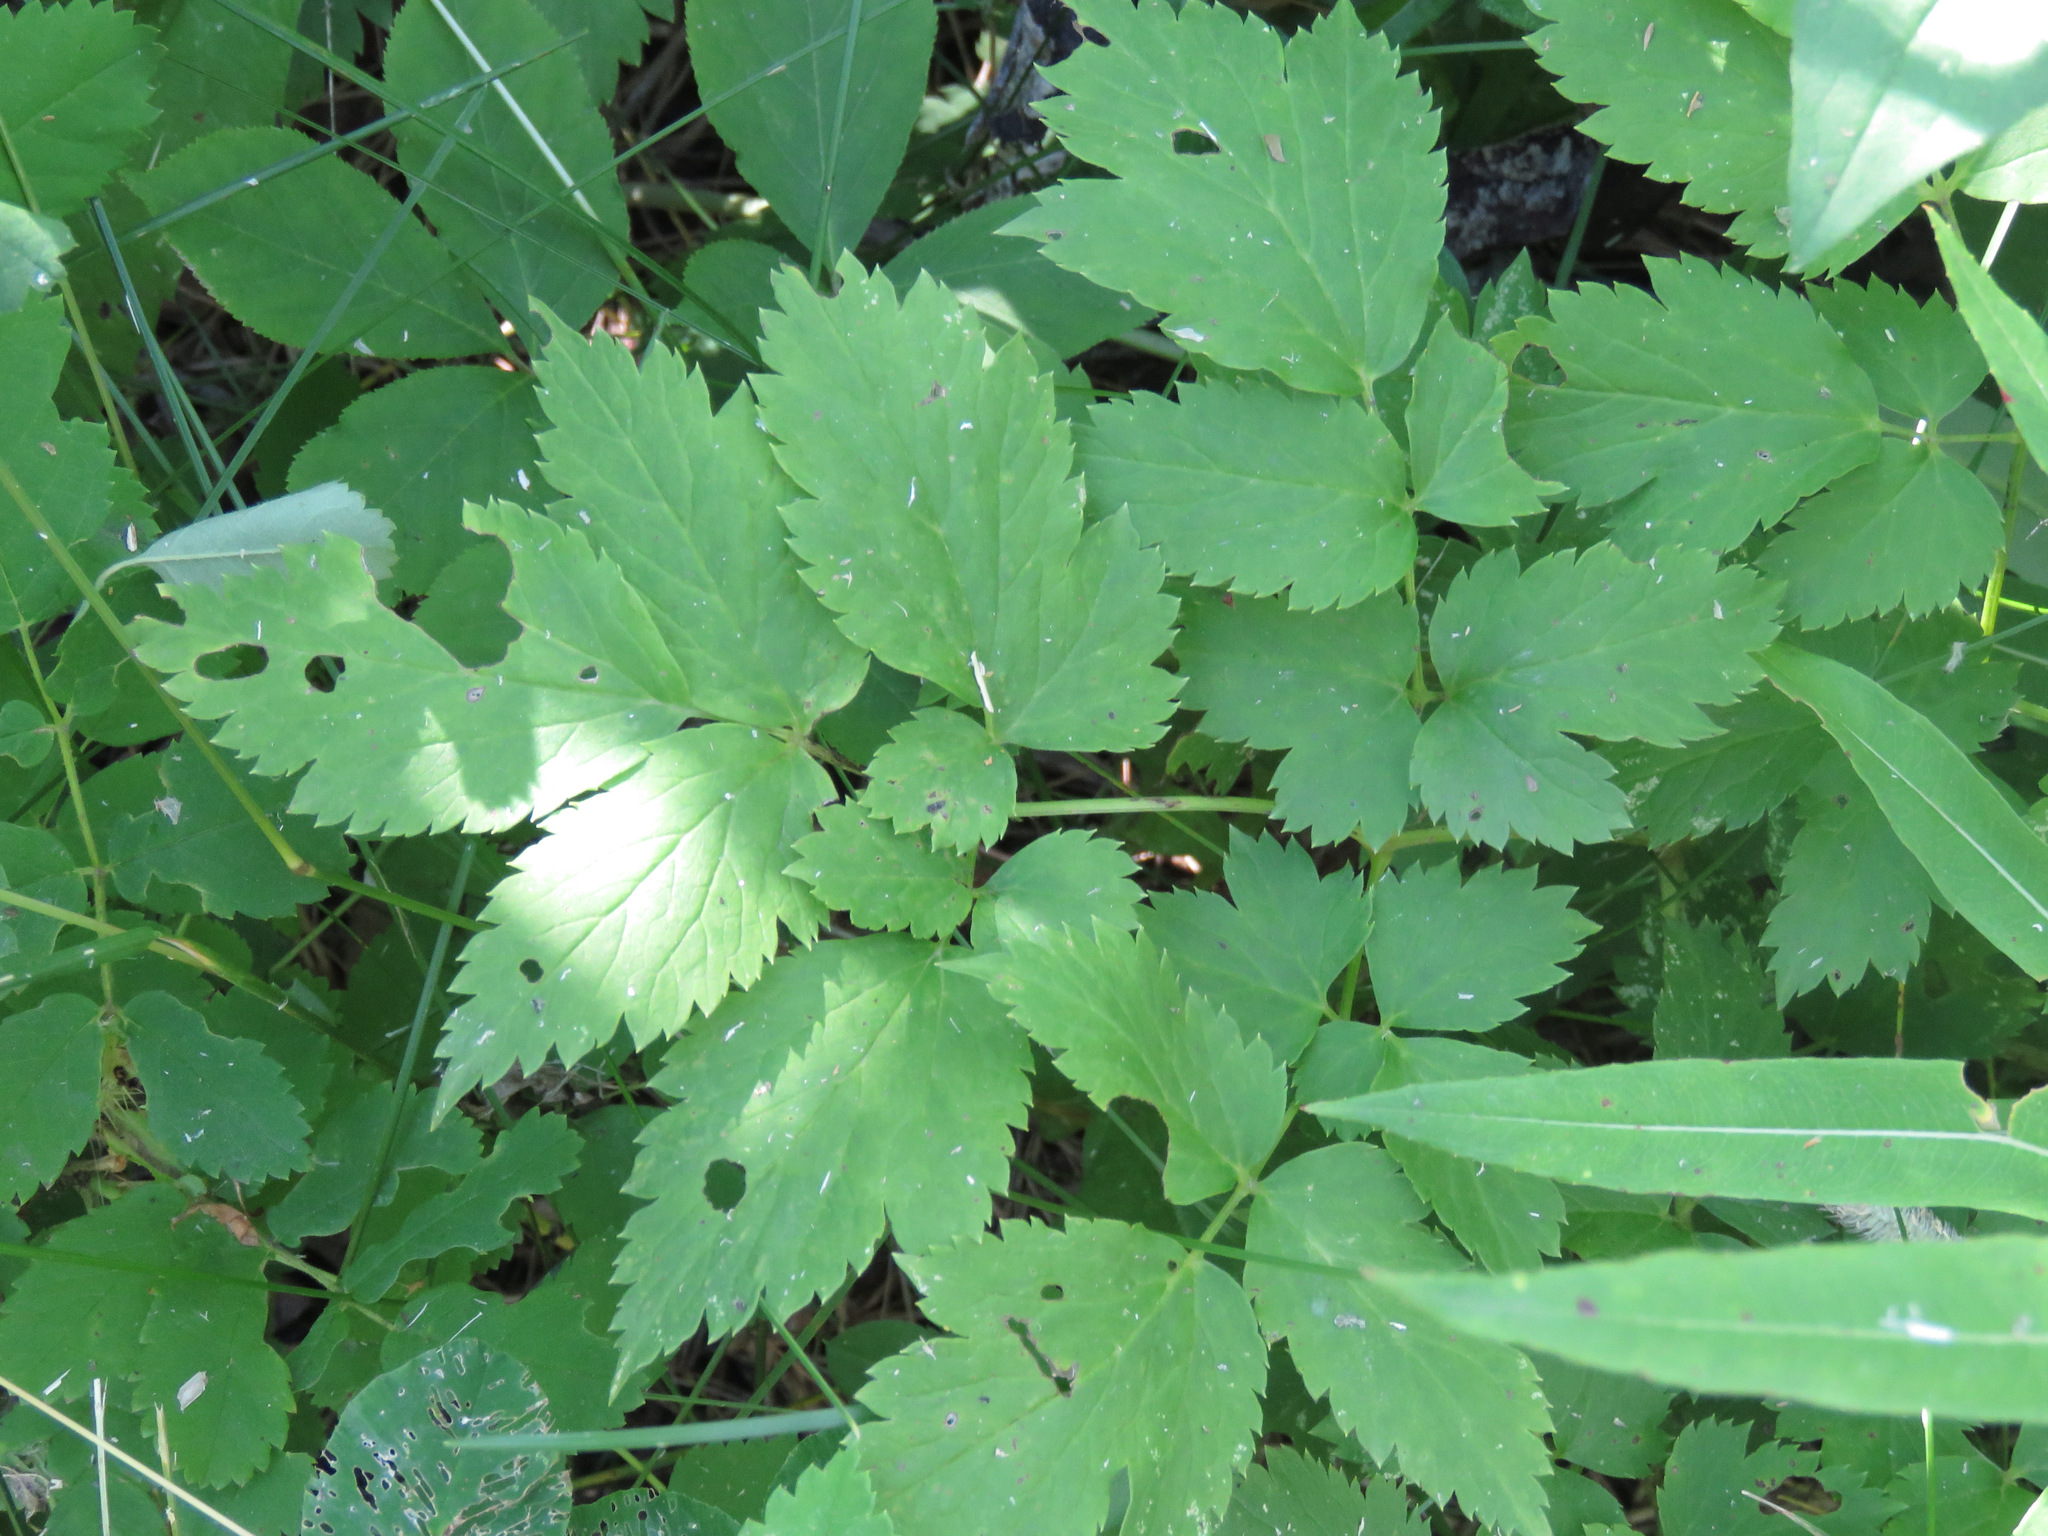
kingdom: Plantae
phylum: Tracheophyta
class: Magnoliopsida
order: Ranunculales
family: Ranunculaceae
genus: Actaea
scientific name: Actaea rubra
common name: Red baneberry
